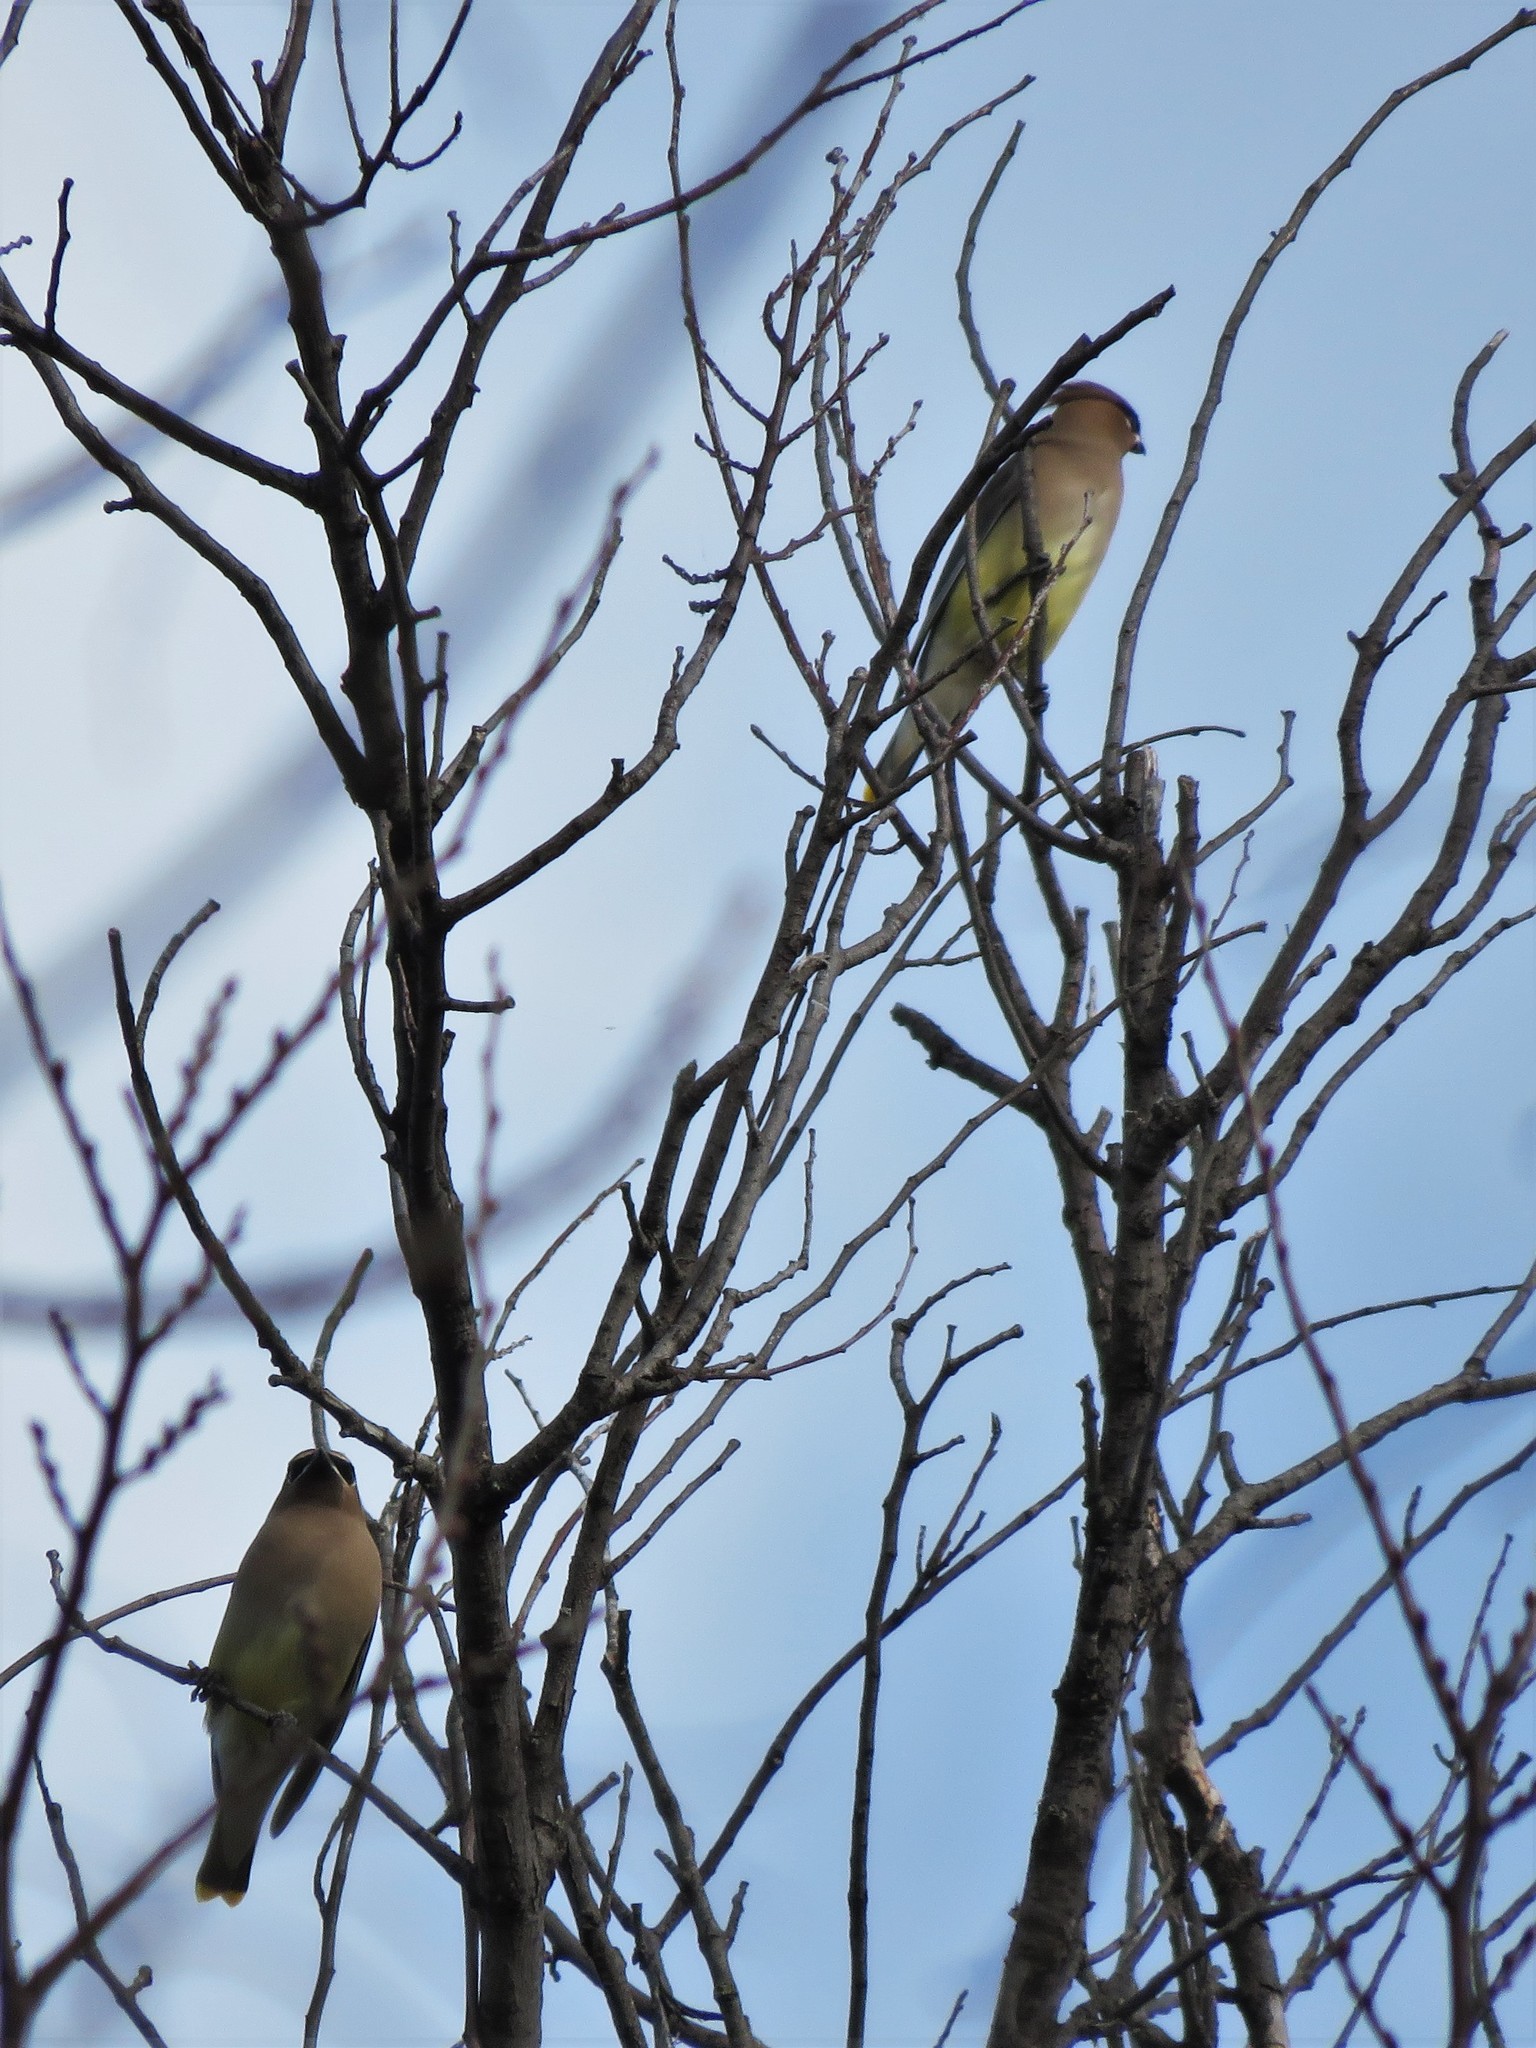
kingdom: Animalia
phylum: Chordata
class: Aves
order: Passeriformes
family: Bombycillidae
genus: Bombycilla
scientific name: Bombycilla cedrorum
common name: Cedar waxwing
